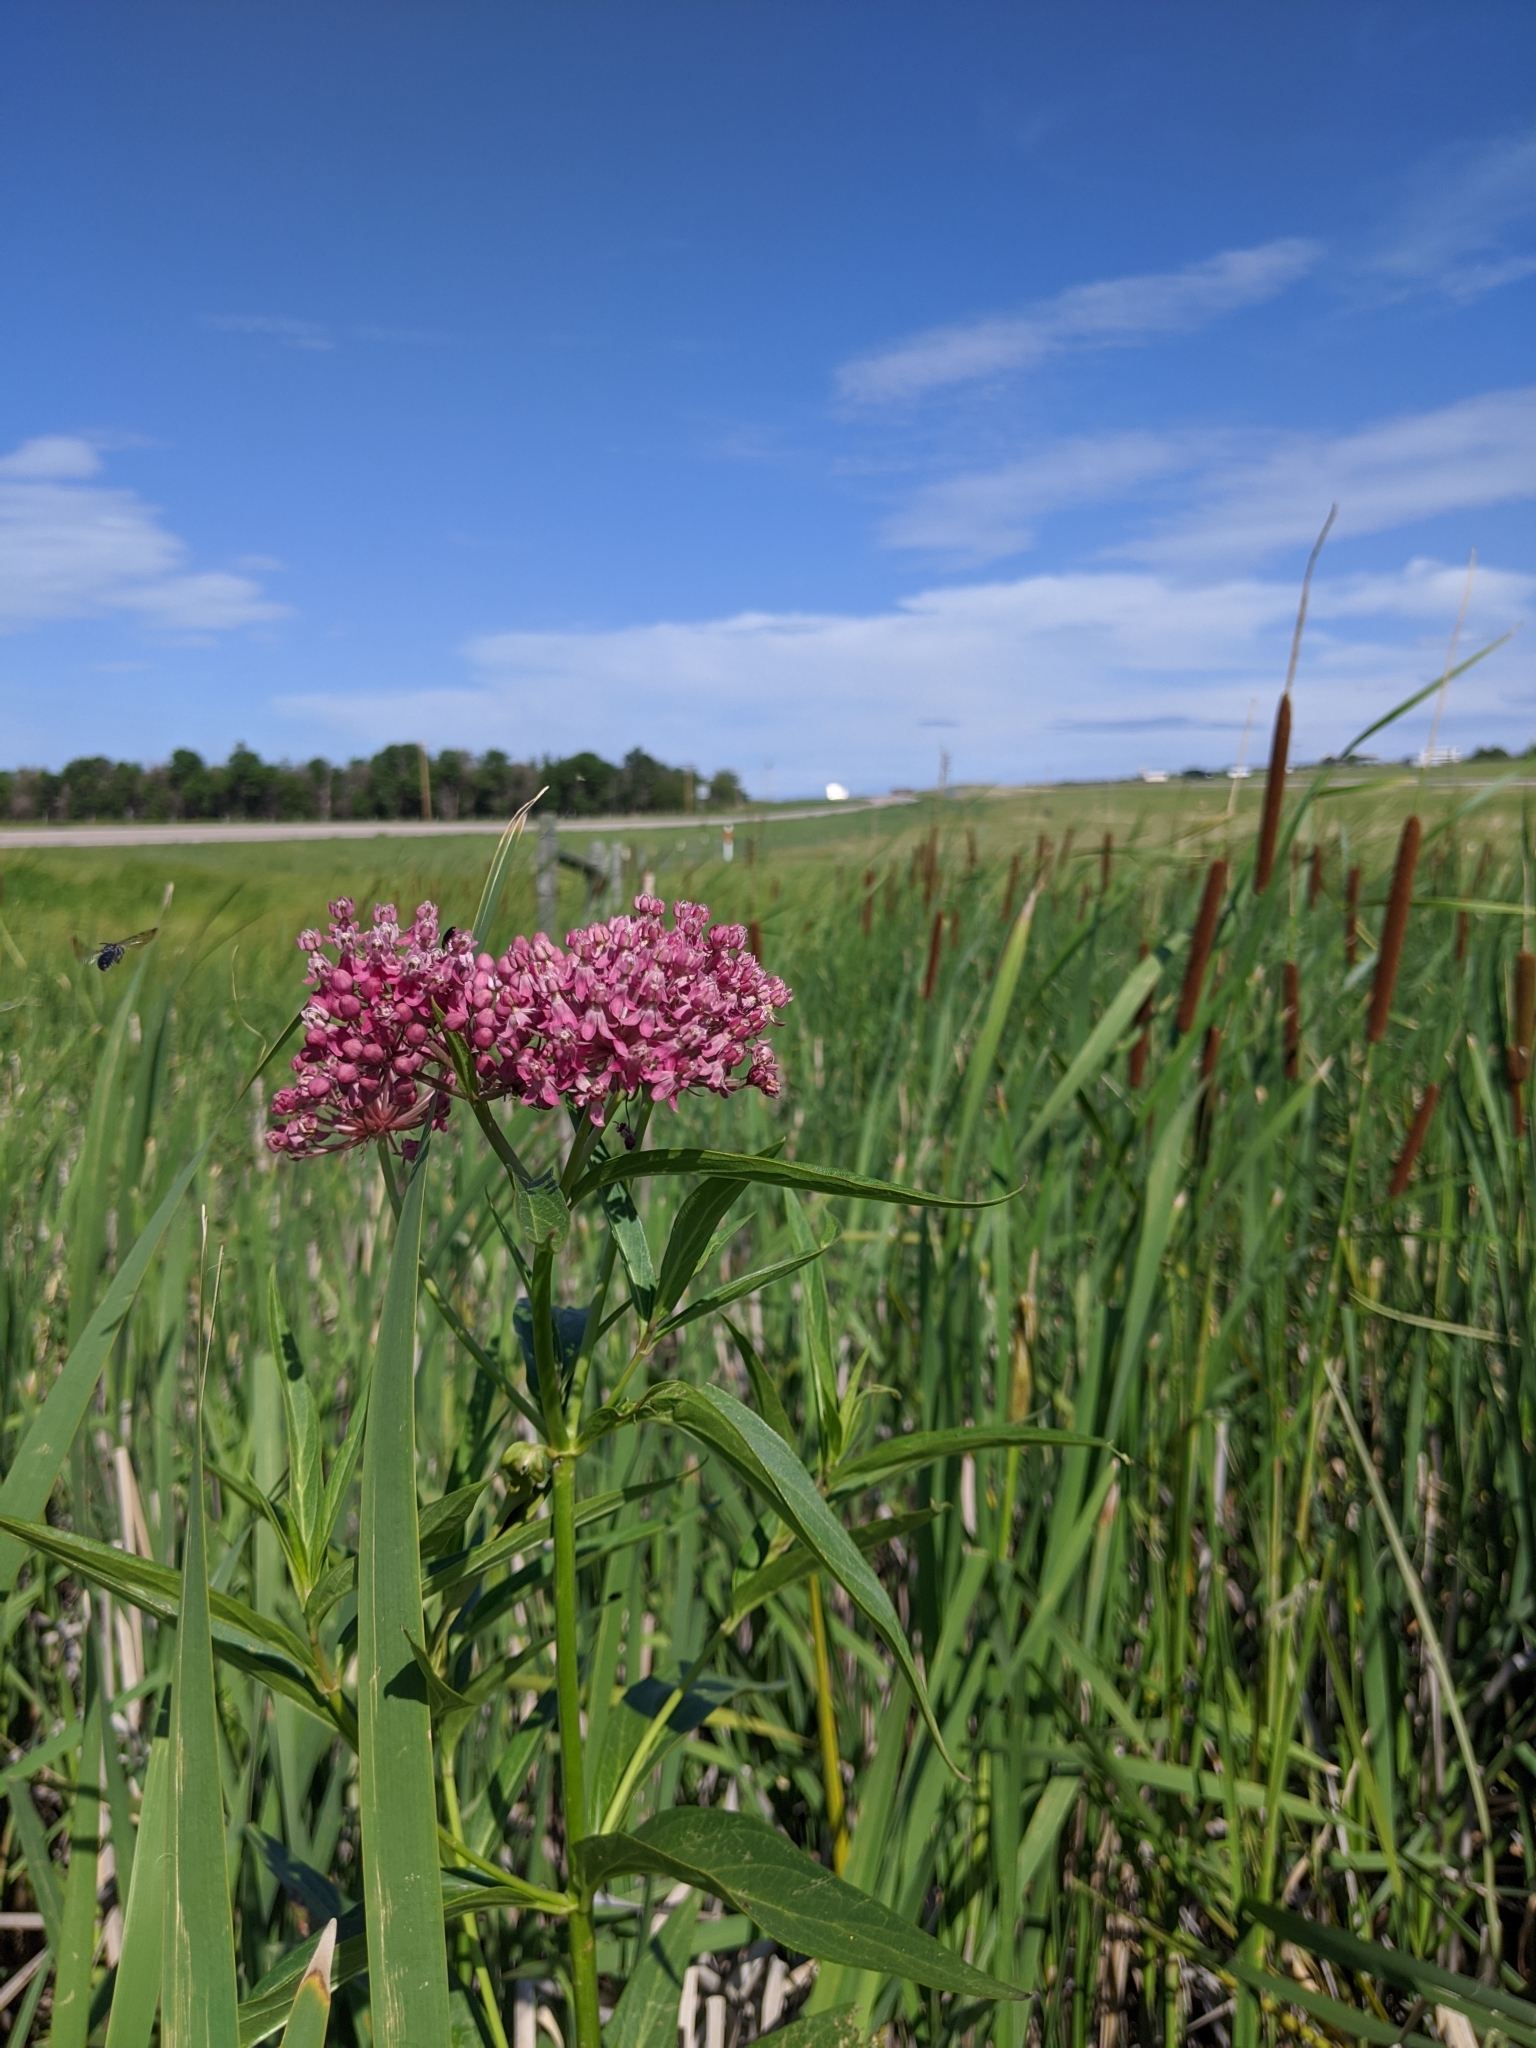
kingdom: Plantae
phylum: Tracheophyta
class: Magnoliopsida
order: Gentianales
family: Apocynaceae
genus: Asclepias
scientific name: Asclepias incarnata
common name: Swamp milkweed
